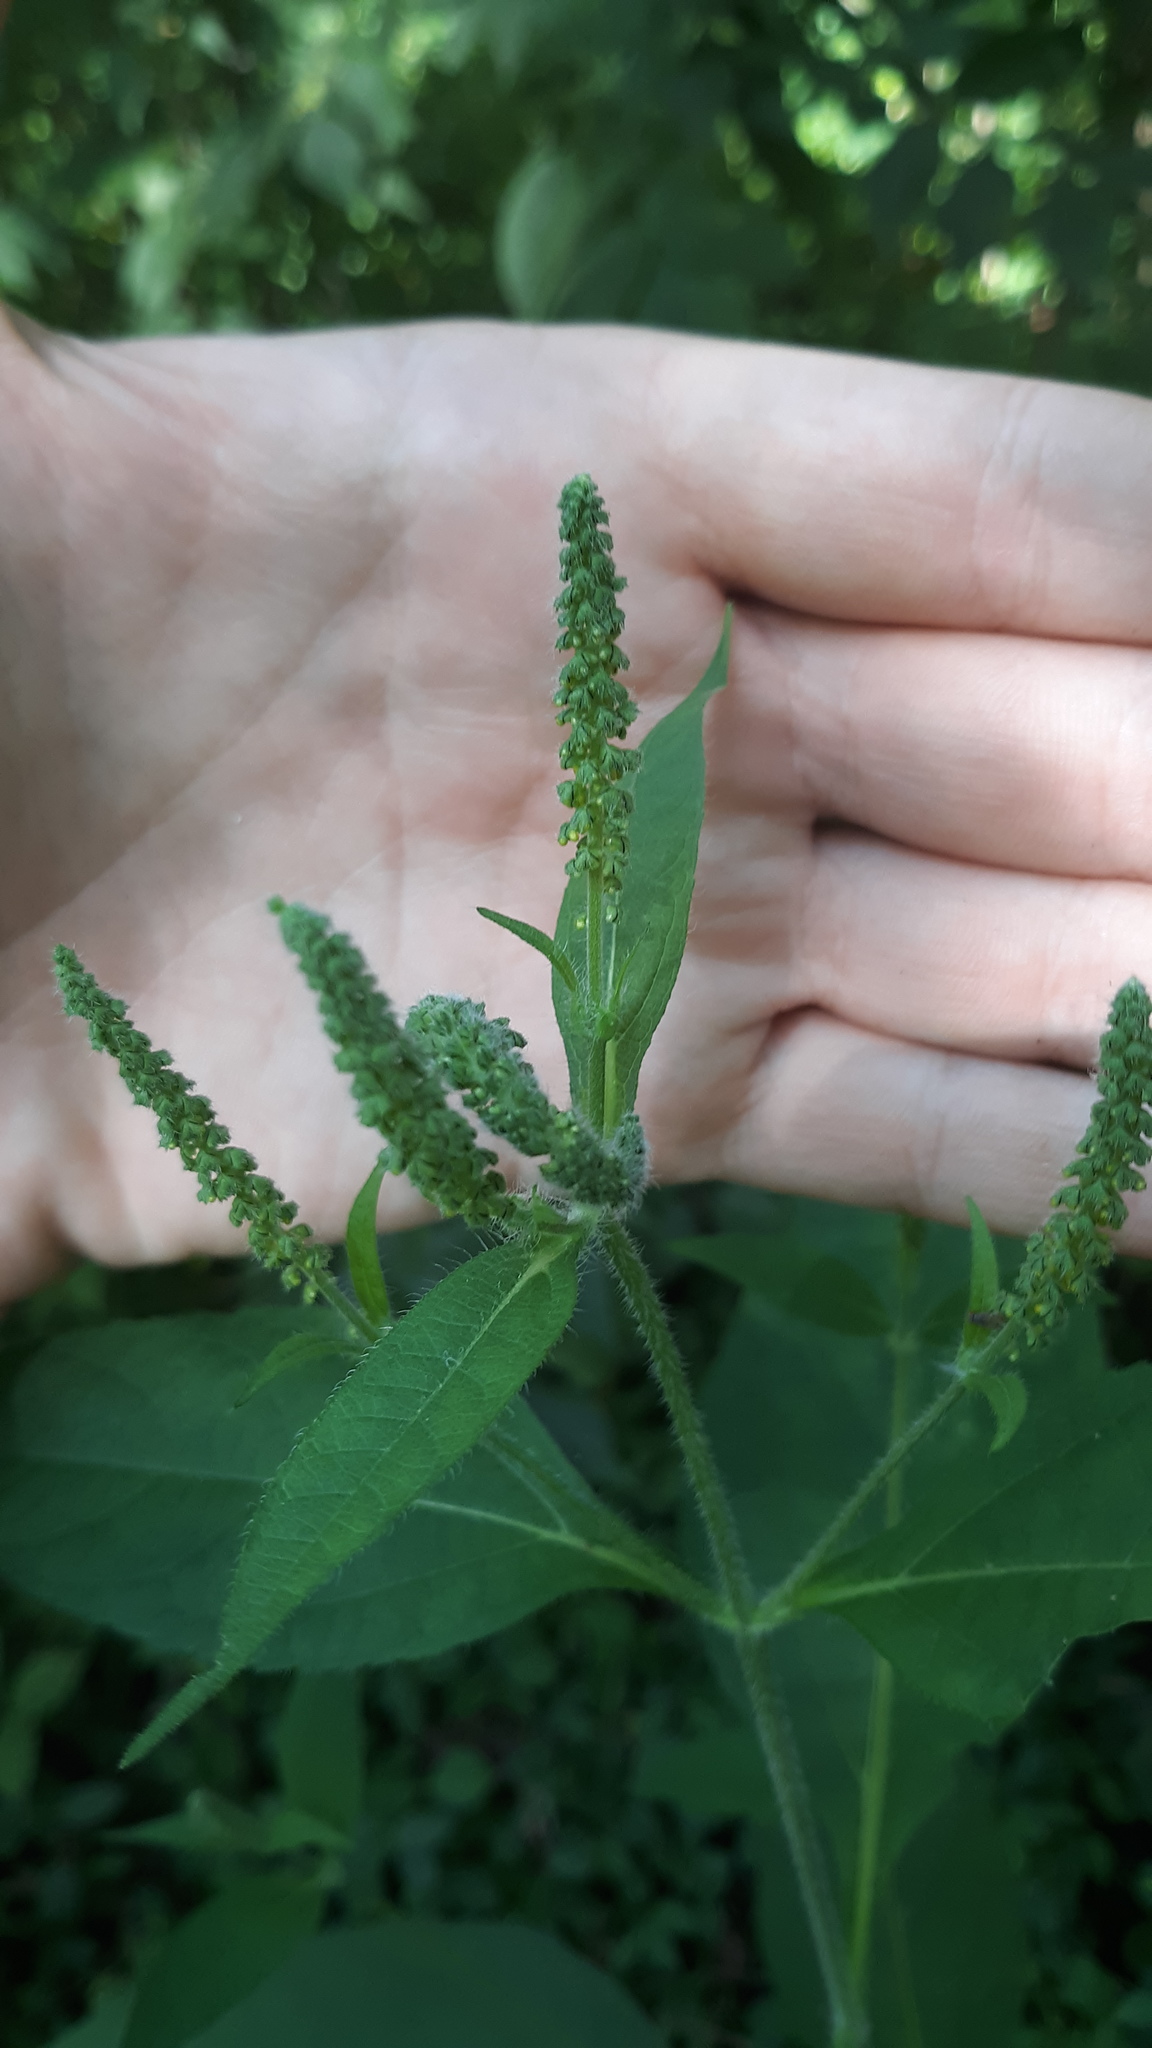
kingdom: Plantae
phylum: Tracheophyta
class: Magnoliopsida
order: Asterales
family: Asteraceae
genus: Ambrosia
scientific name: Ambrosia trifida
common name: Giant ragweed
